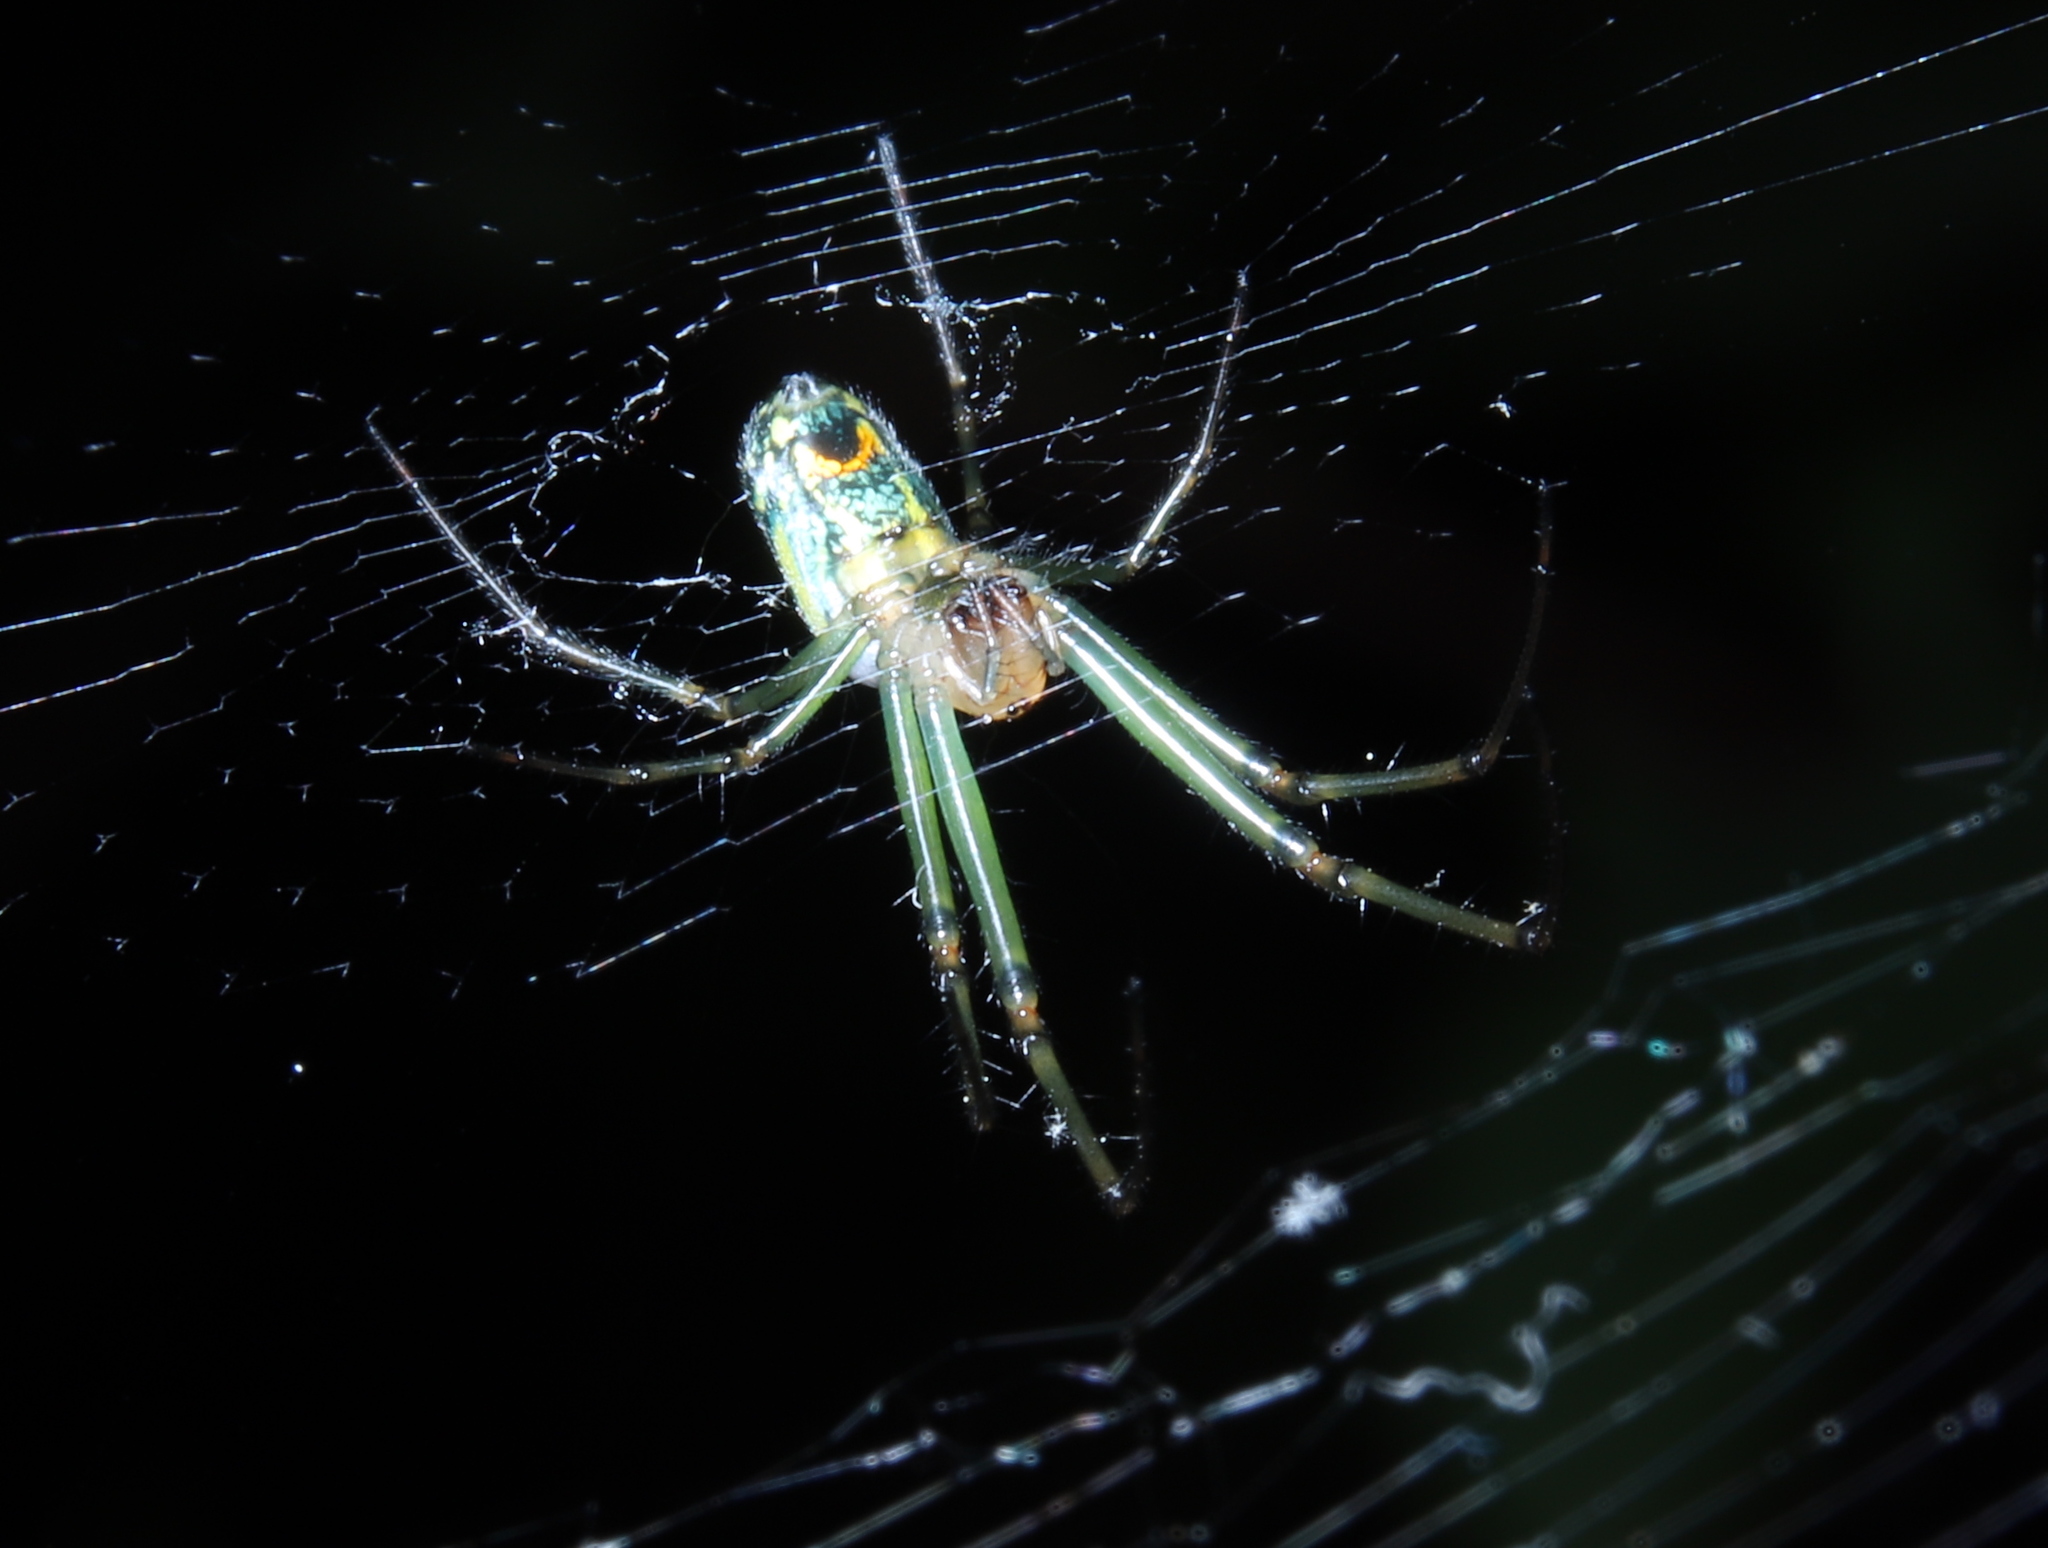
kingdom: Animalia
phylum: Arthropoda
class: Arachnida
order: Araneae
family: Tetragnathidae
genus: Leucauge
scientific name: Leucauge venusta
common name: Longjawed orb weavers
